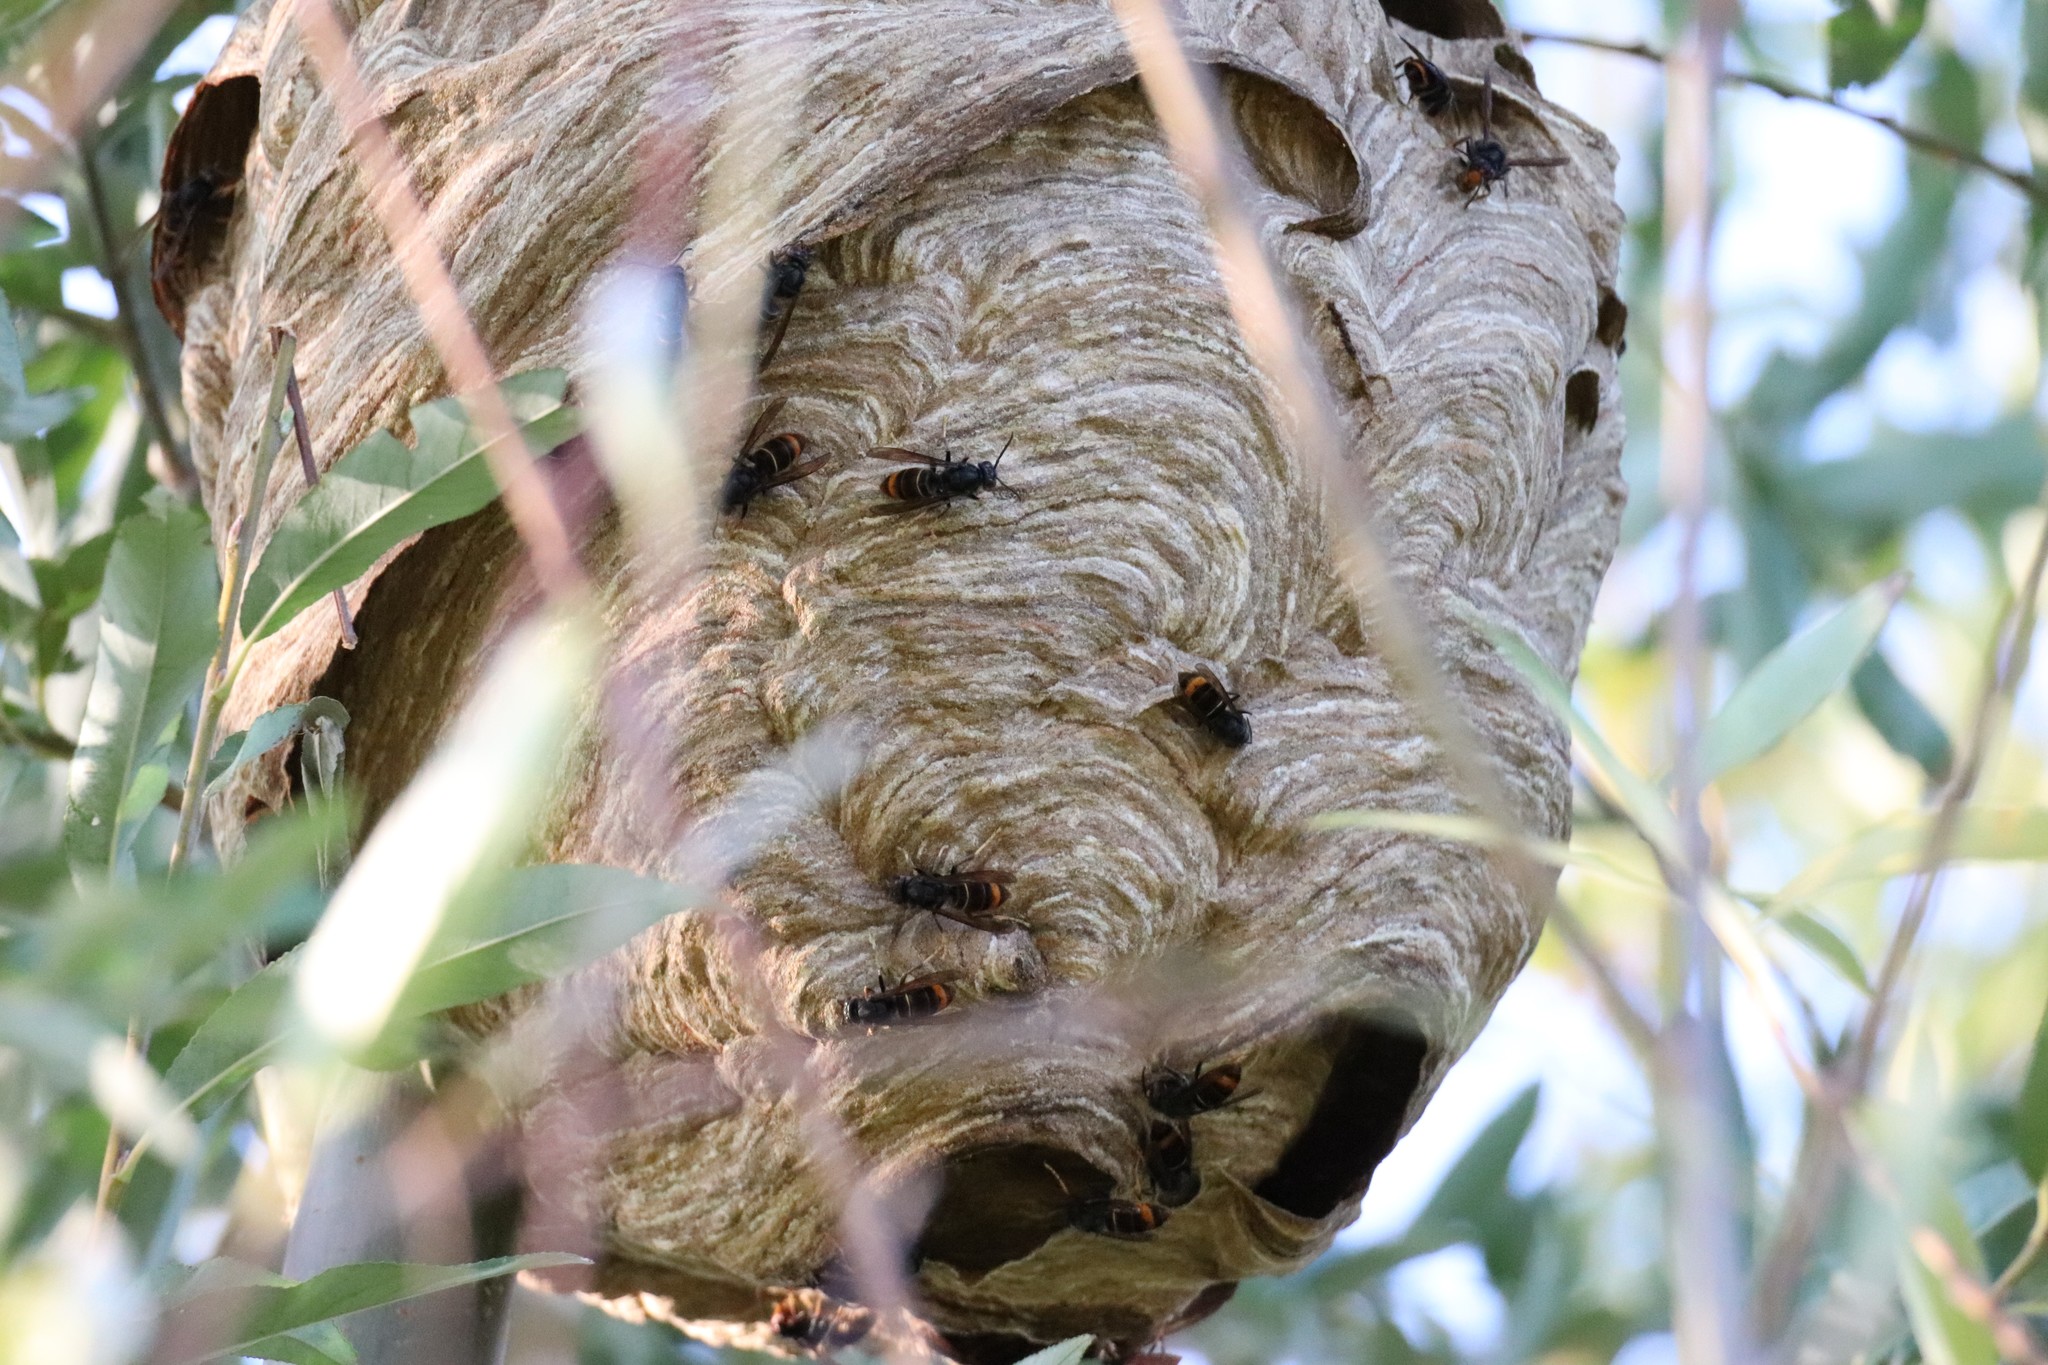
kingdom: Animalia
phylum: Arthropoda
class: Insecta
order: Hymenoptera
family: Vespidae
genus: Vespa
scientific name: Vespa velutina
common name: Asian hornet
